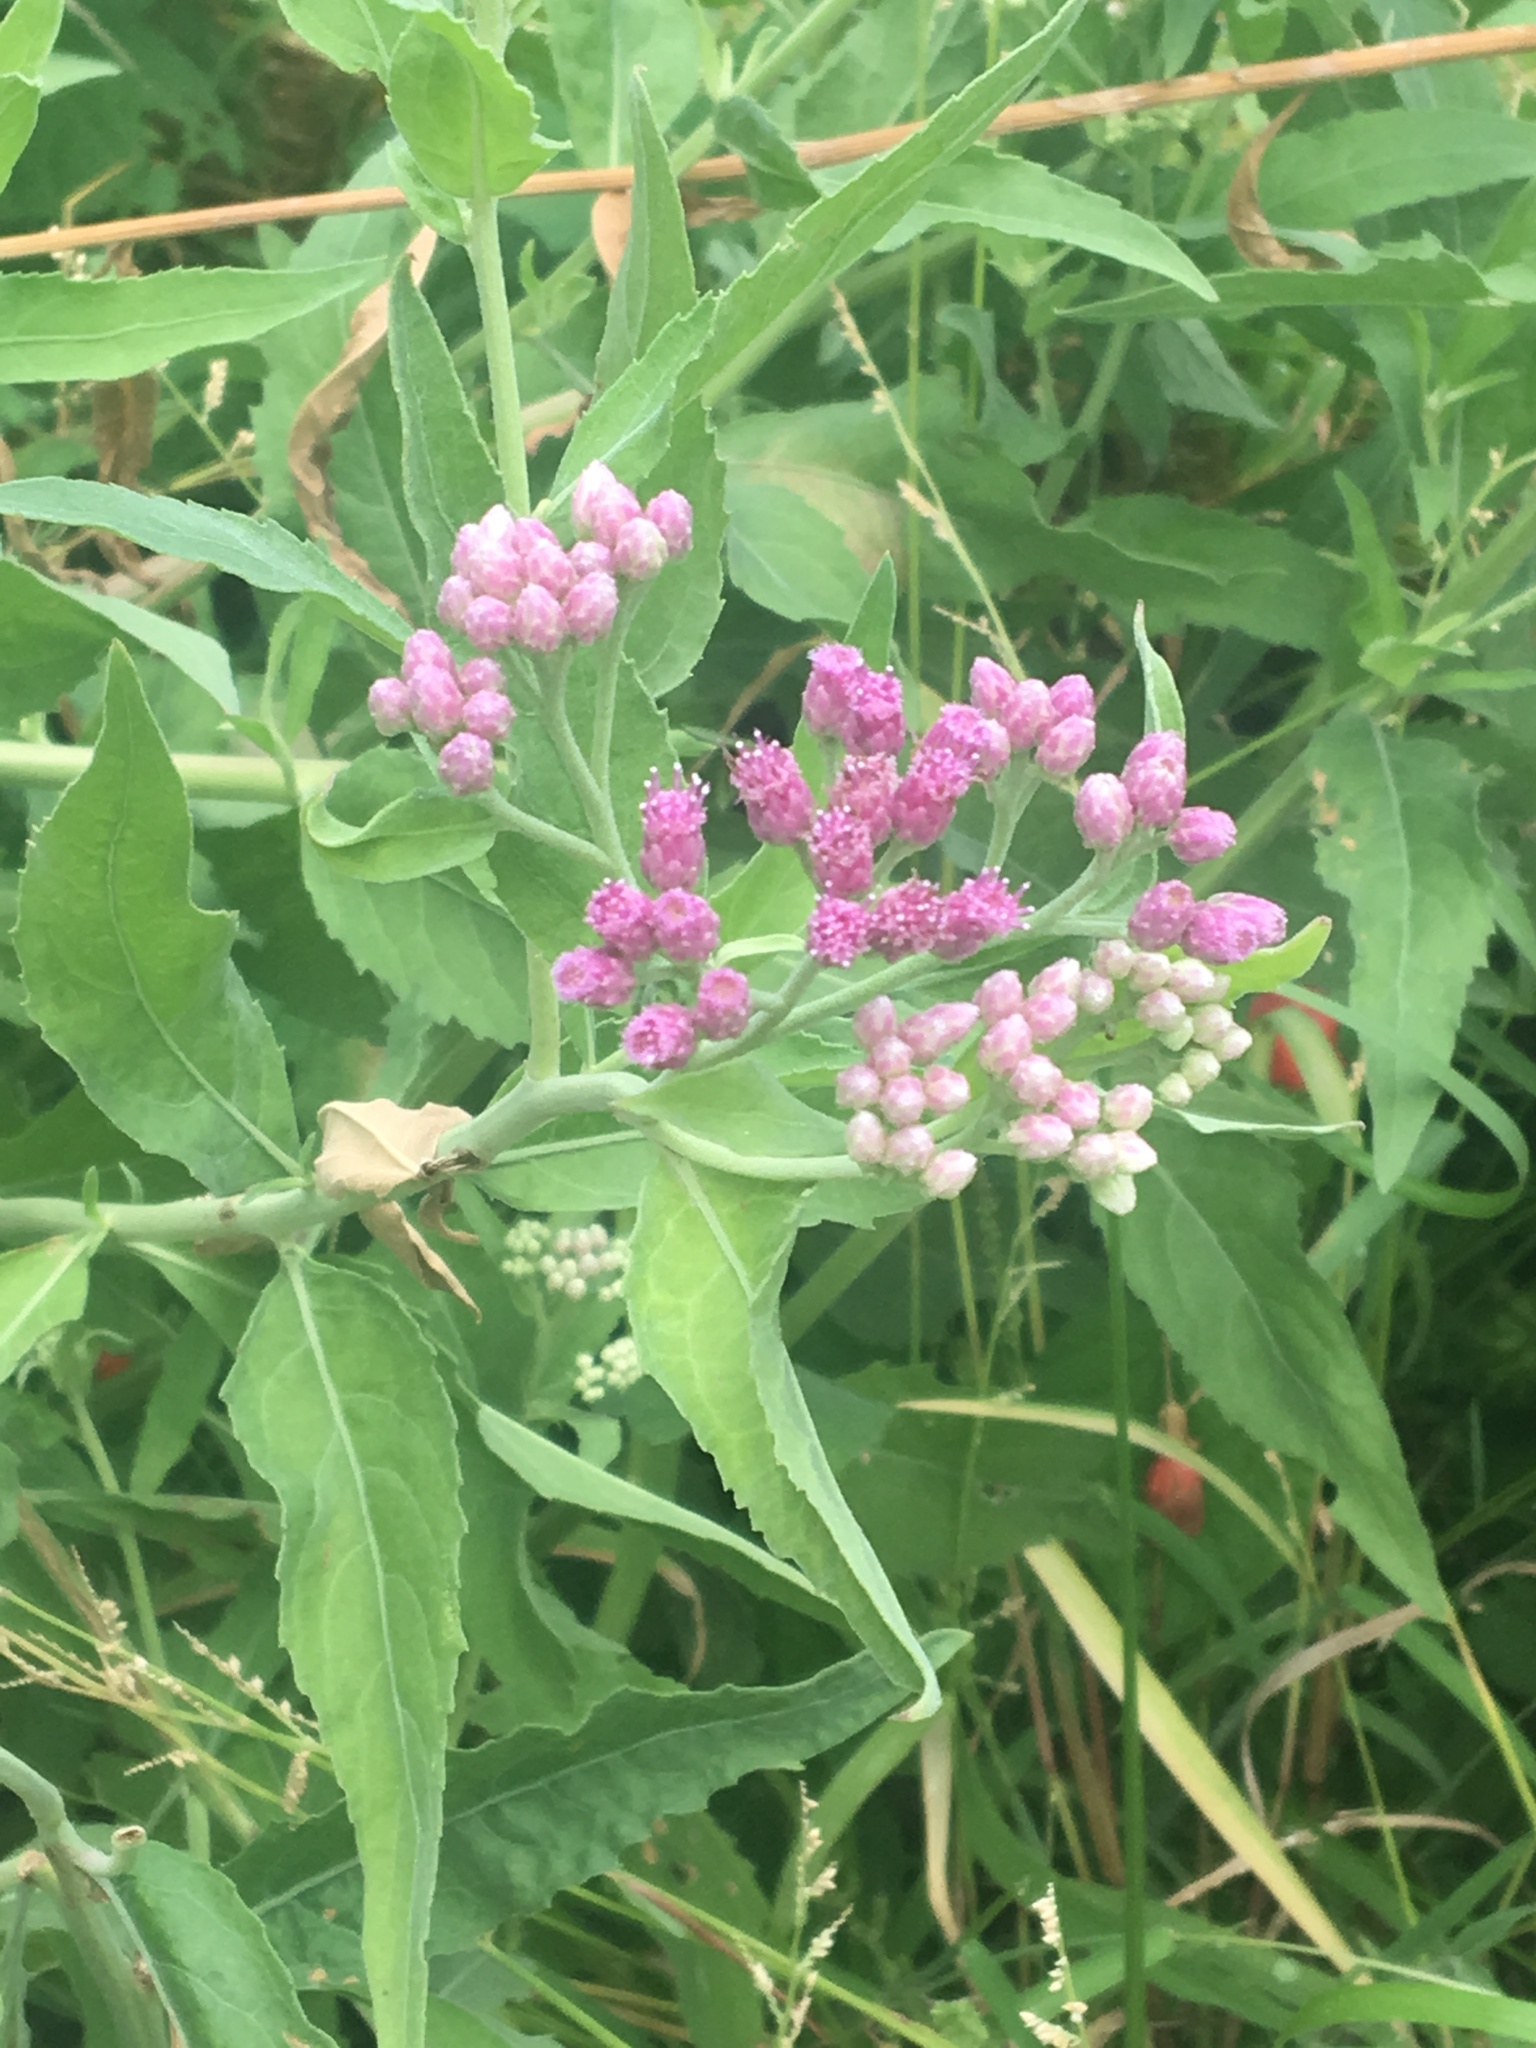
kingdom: Plantae
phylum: Tracheophyta
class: Magnoliopsida
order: Asterales
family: Asteraceae
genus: Pluchea
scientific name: Pluchea camphorata
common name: Camphor pluchea
